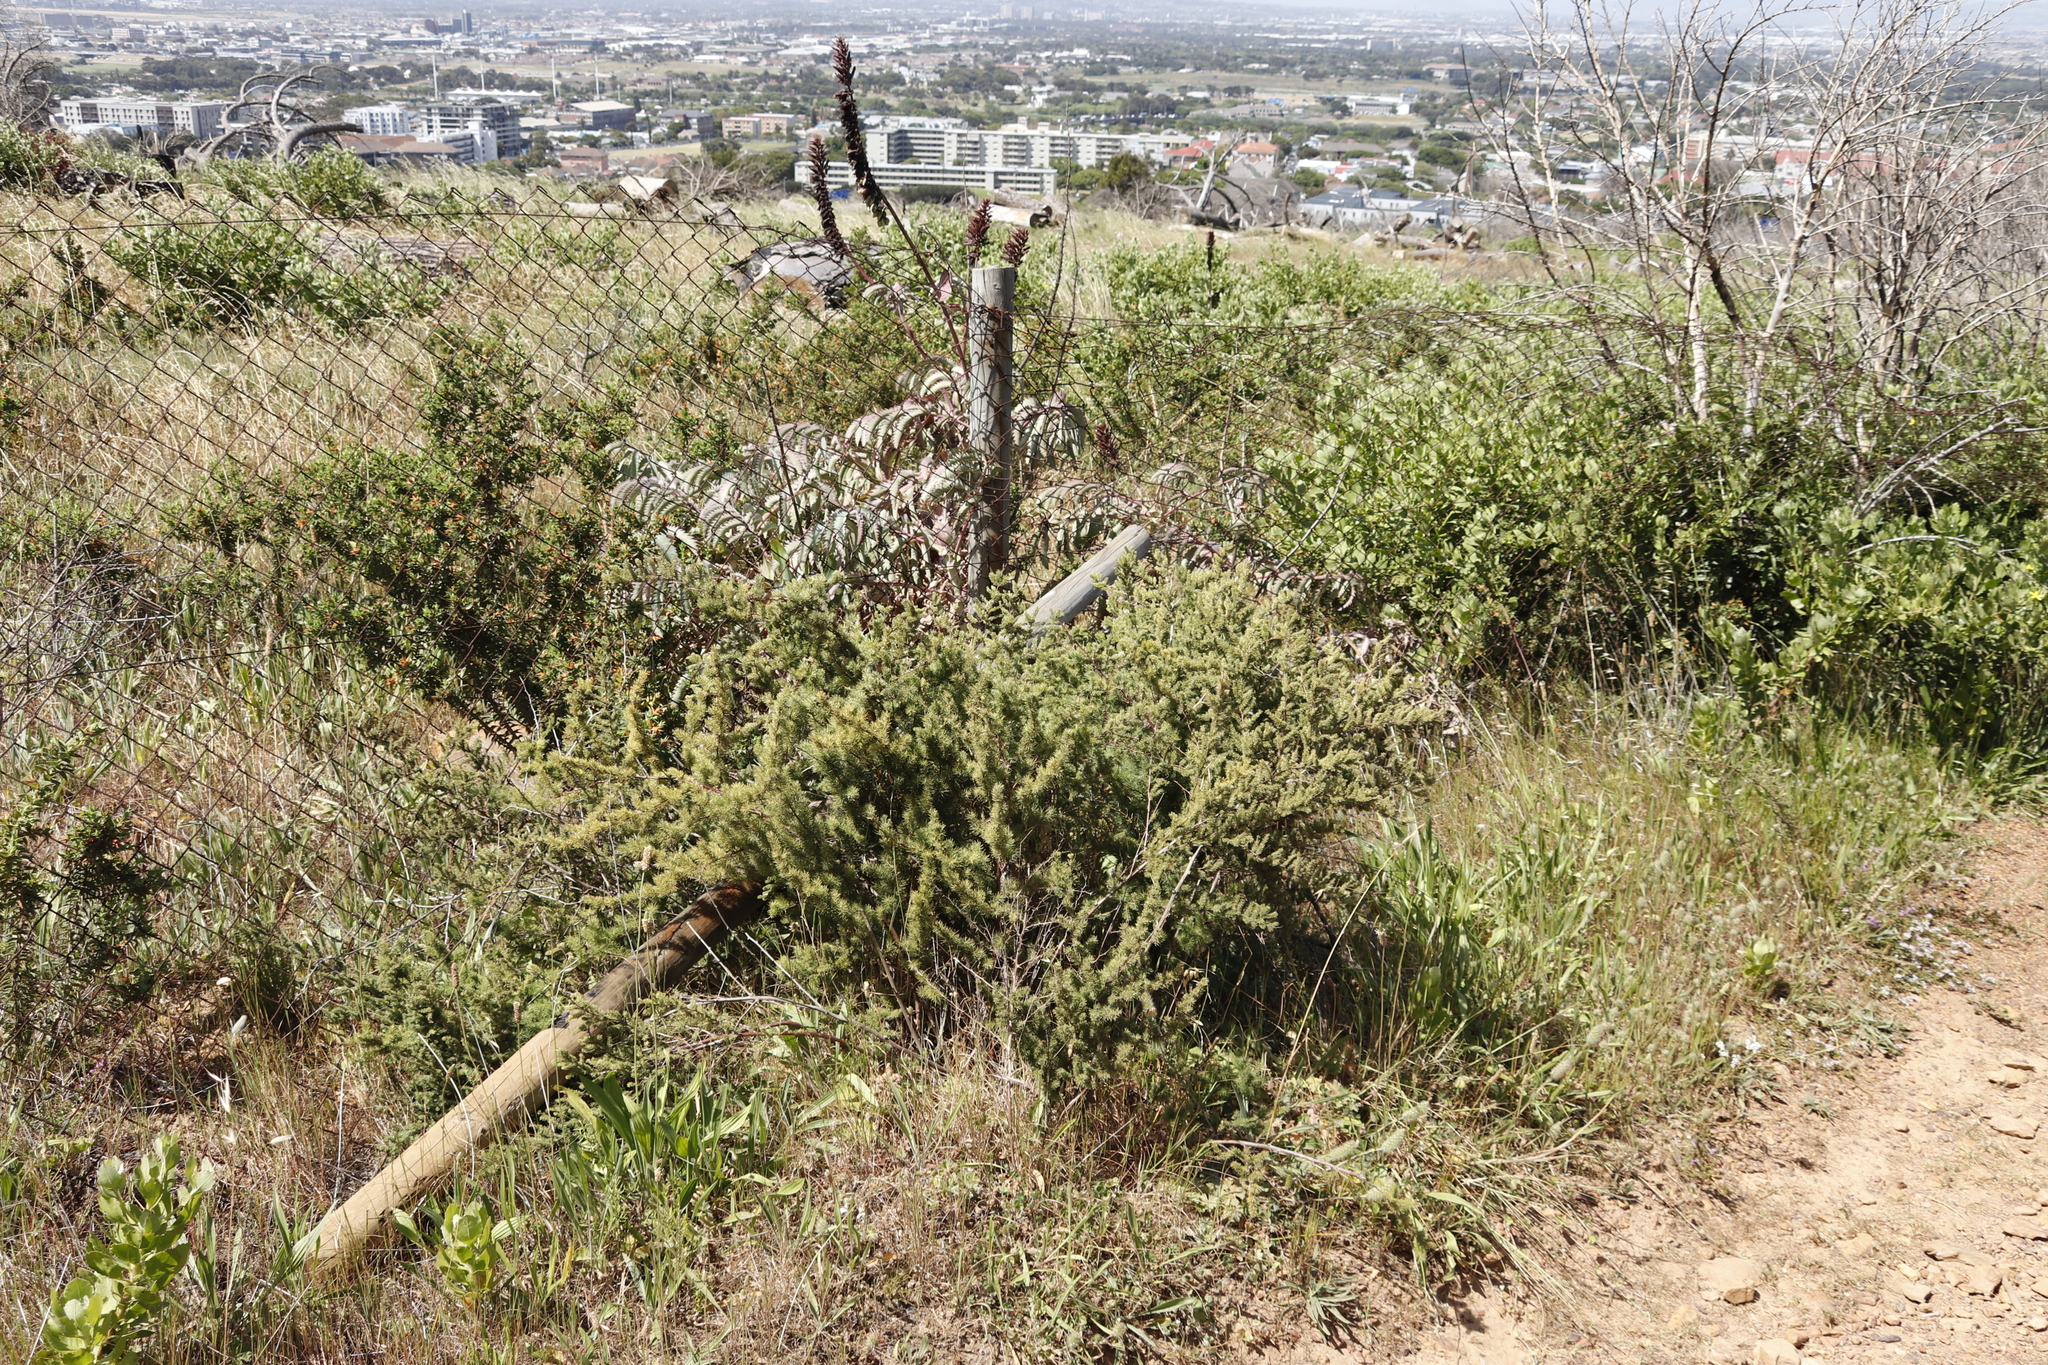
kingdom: Plantae
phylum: Tracheophyta
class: Liliopsida
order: Asparagales
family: Asparagaceae
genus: Asparagus
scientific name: Asparagus rubicundus
